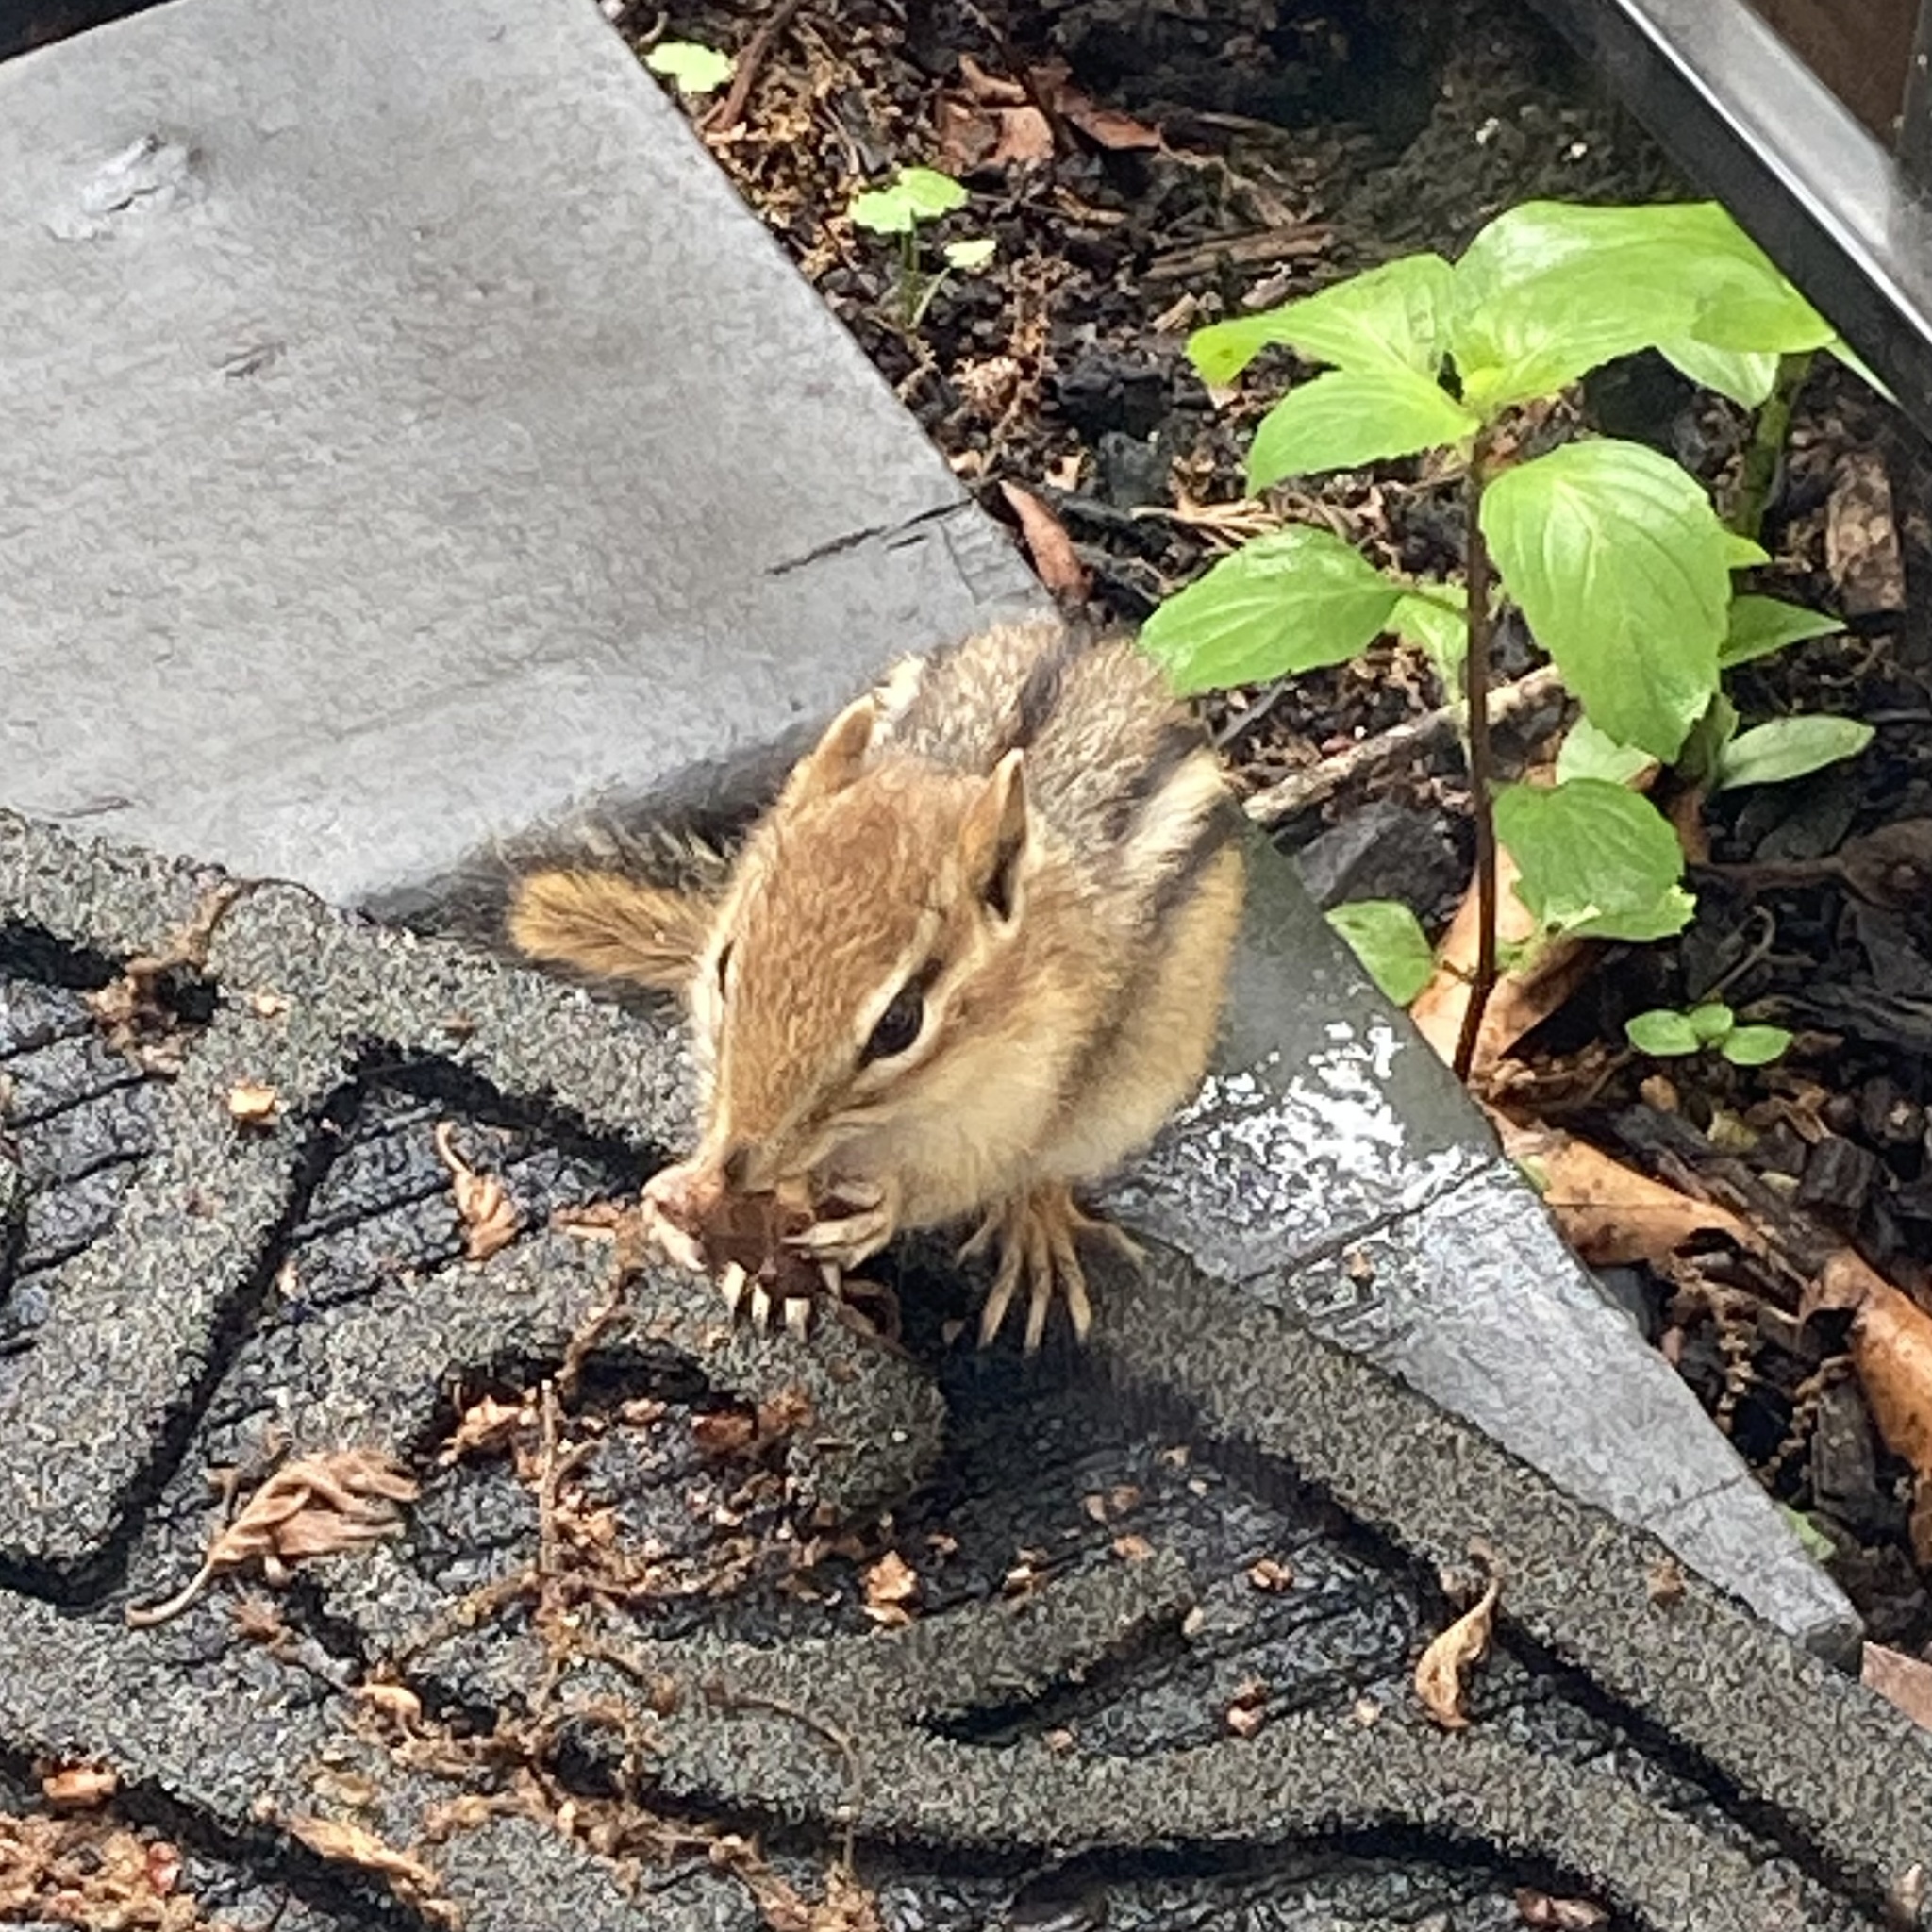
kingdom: Animalia
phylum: Chordata
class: Mammalia
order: Rodentia
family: Sciuridae
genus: Tamias
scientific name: Tamias striatus
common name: Eastern chipmunk
